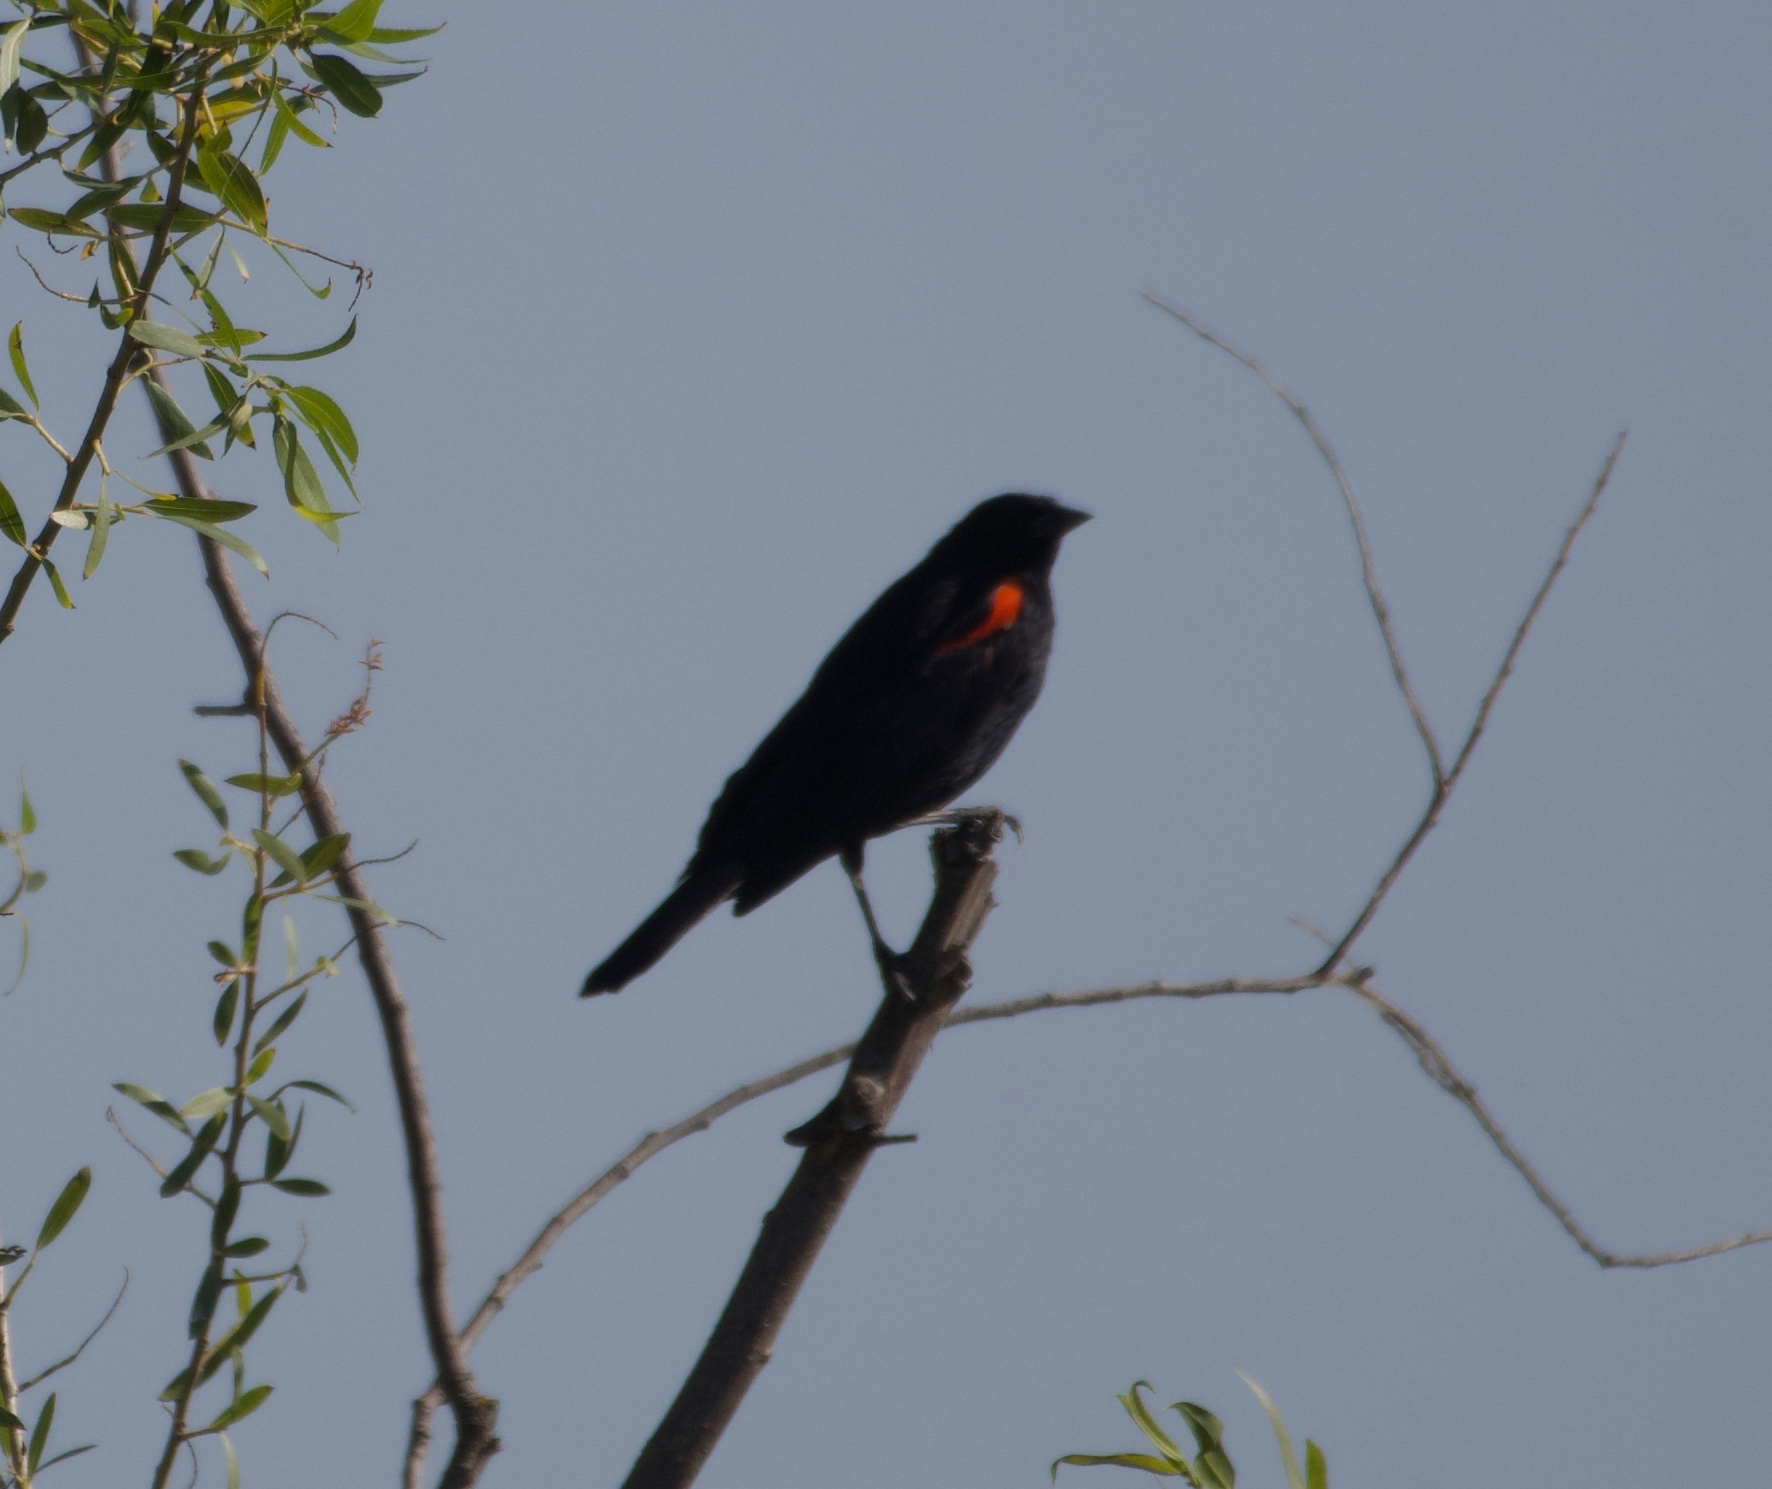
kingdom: Animalia
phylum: Chordata
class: Aves
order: Passeriformes
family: Icteridae
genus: Agelaius
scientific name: Agelaius phoeniceus
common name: Red-winged blackbird
